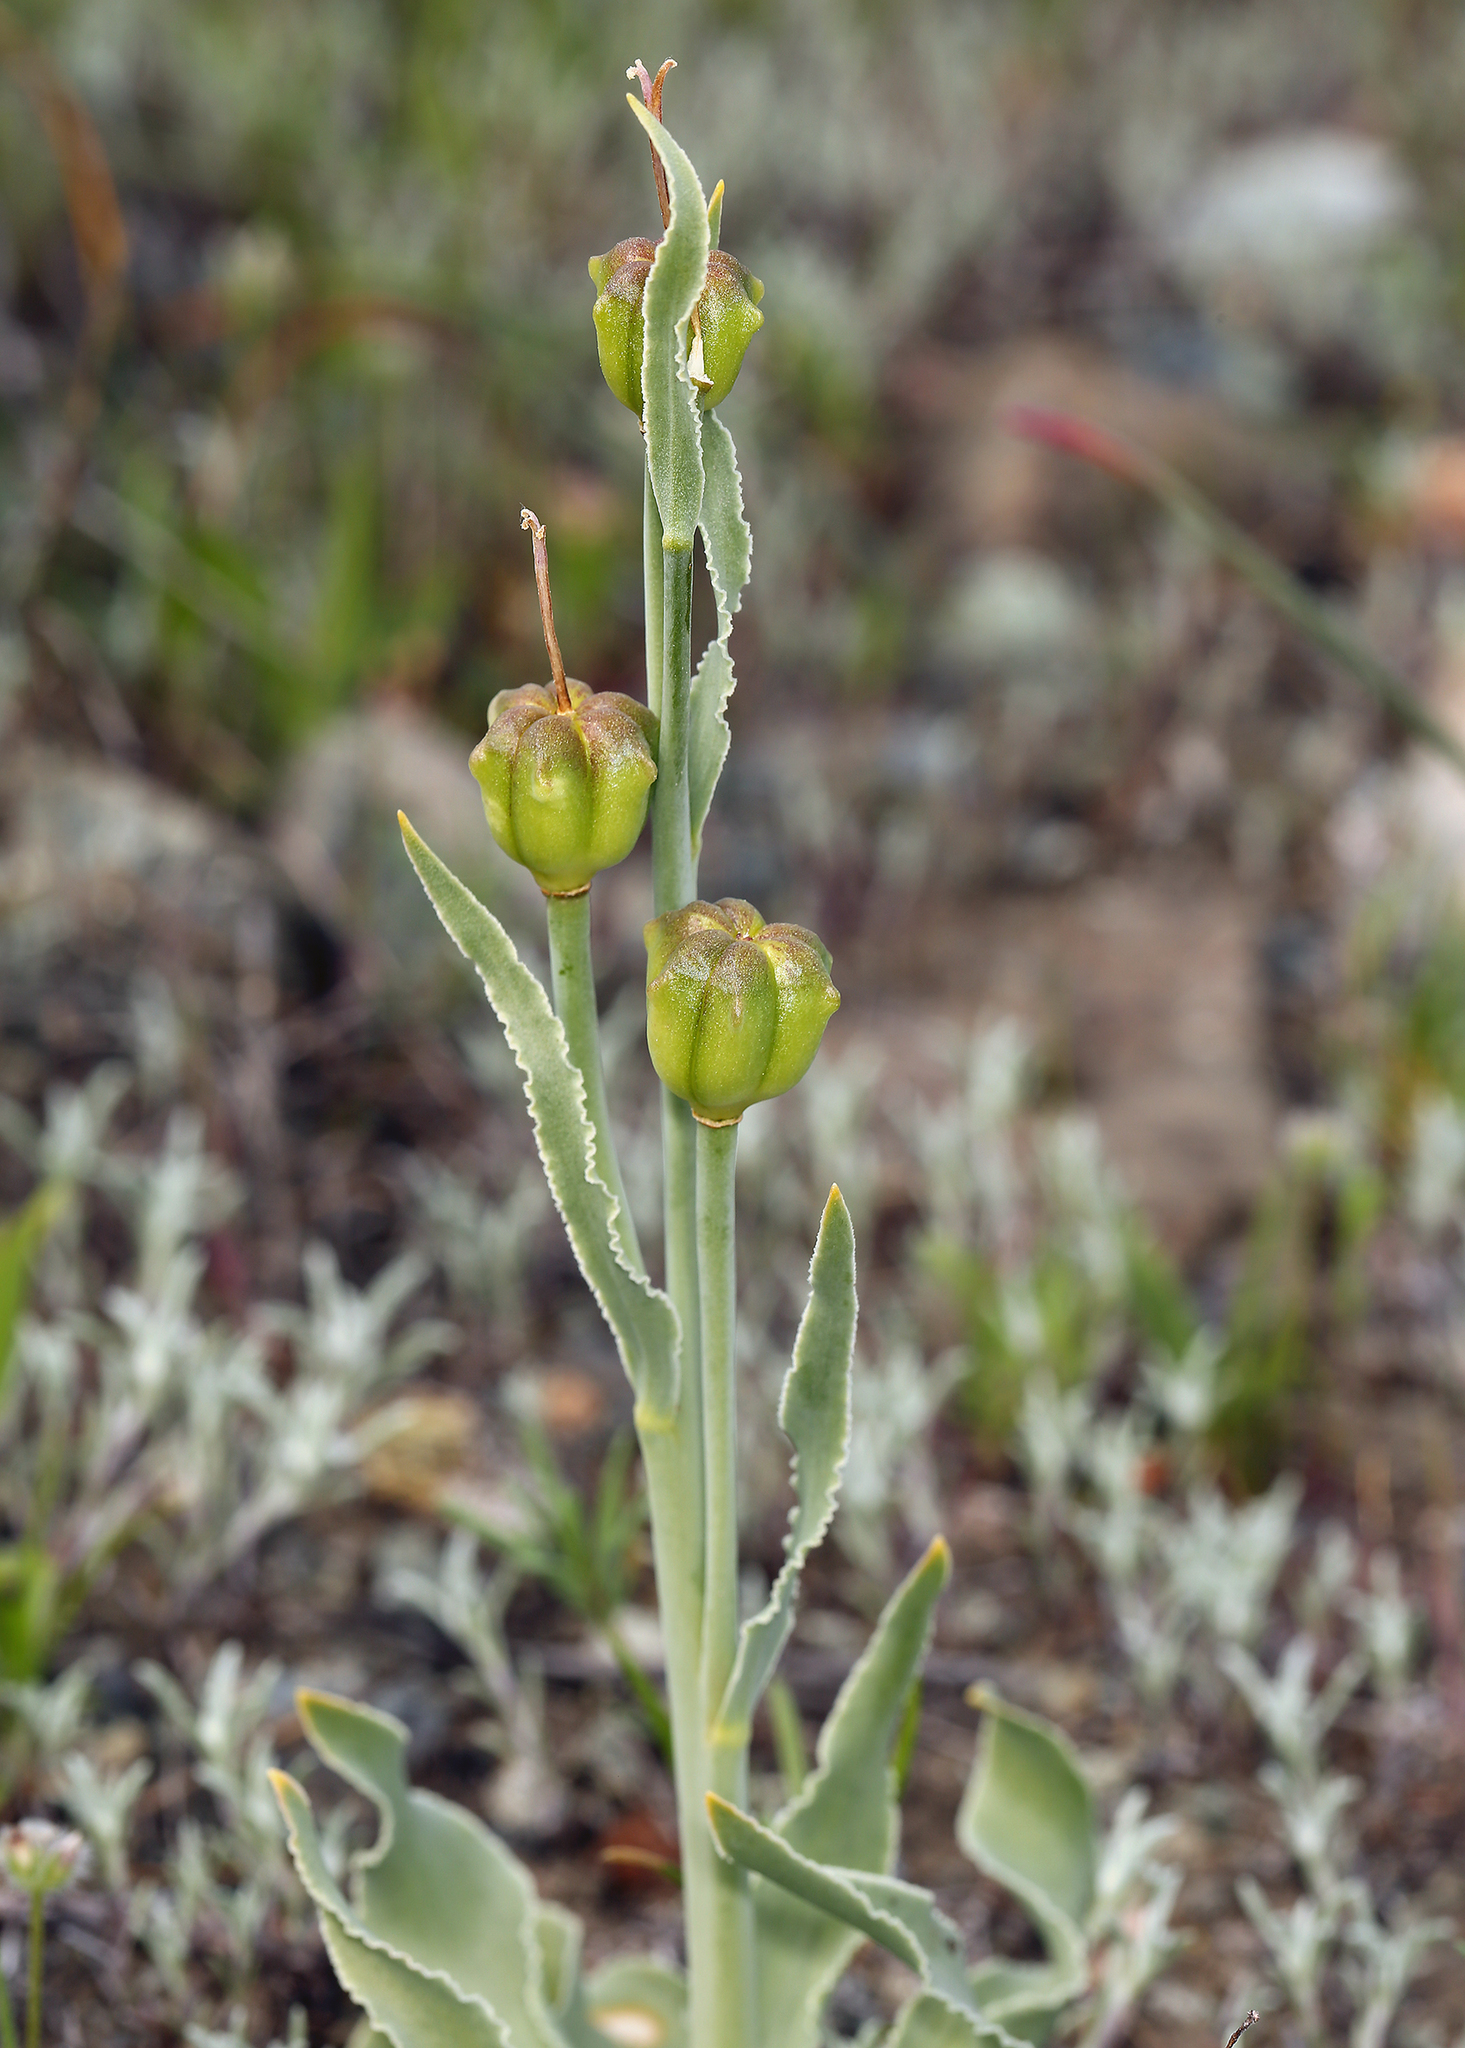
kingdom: Plantae
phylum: Tracheophyta
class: Liliopsida
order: Liliales
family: Liliaceae
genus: Fritillaria
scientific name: Fritillaria pluriflora
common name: Adobe-lily
